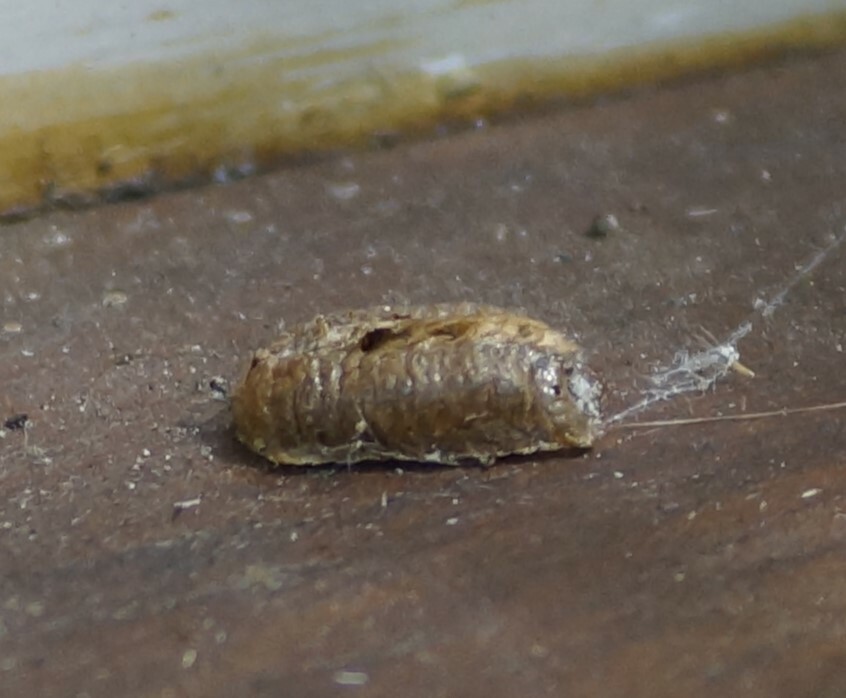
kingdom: Animalia
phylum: Arthropoda
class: Insecta
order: Mantodea
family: Mantidae
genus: Pseudomantis
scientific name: Pseudomantis albofimbriata
